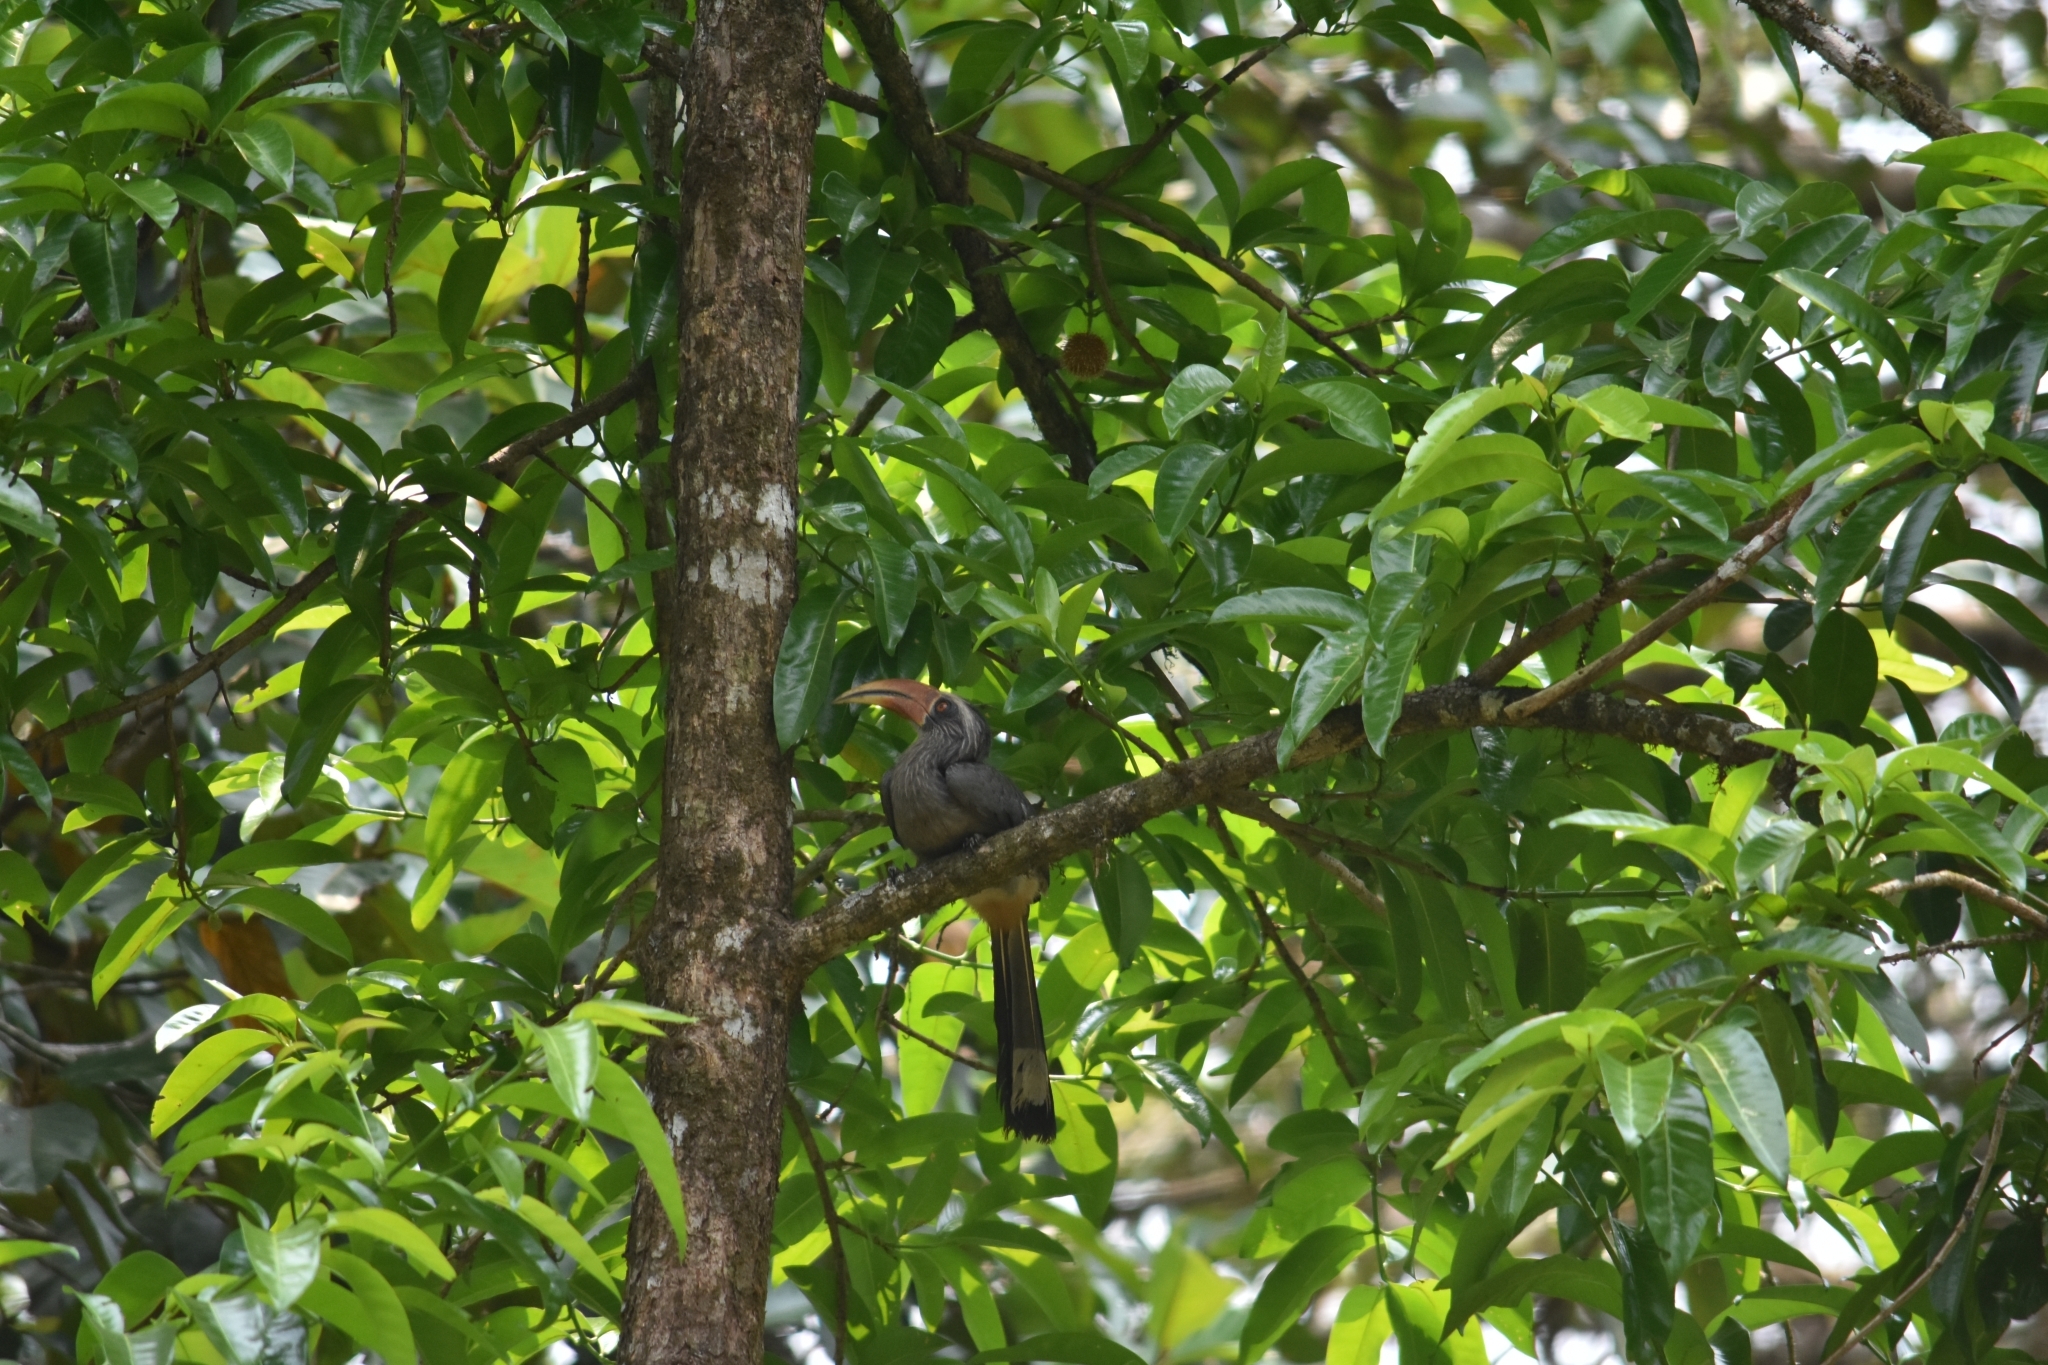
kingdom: Animalia
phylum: Chordata
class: Aves
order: Bucerotiformes
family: Bucerotidae
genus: Ocyceros
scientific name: Ocyceros griseus
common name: Malabar grey hornbill
